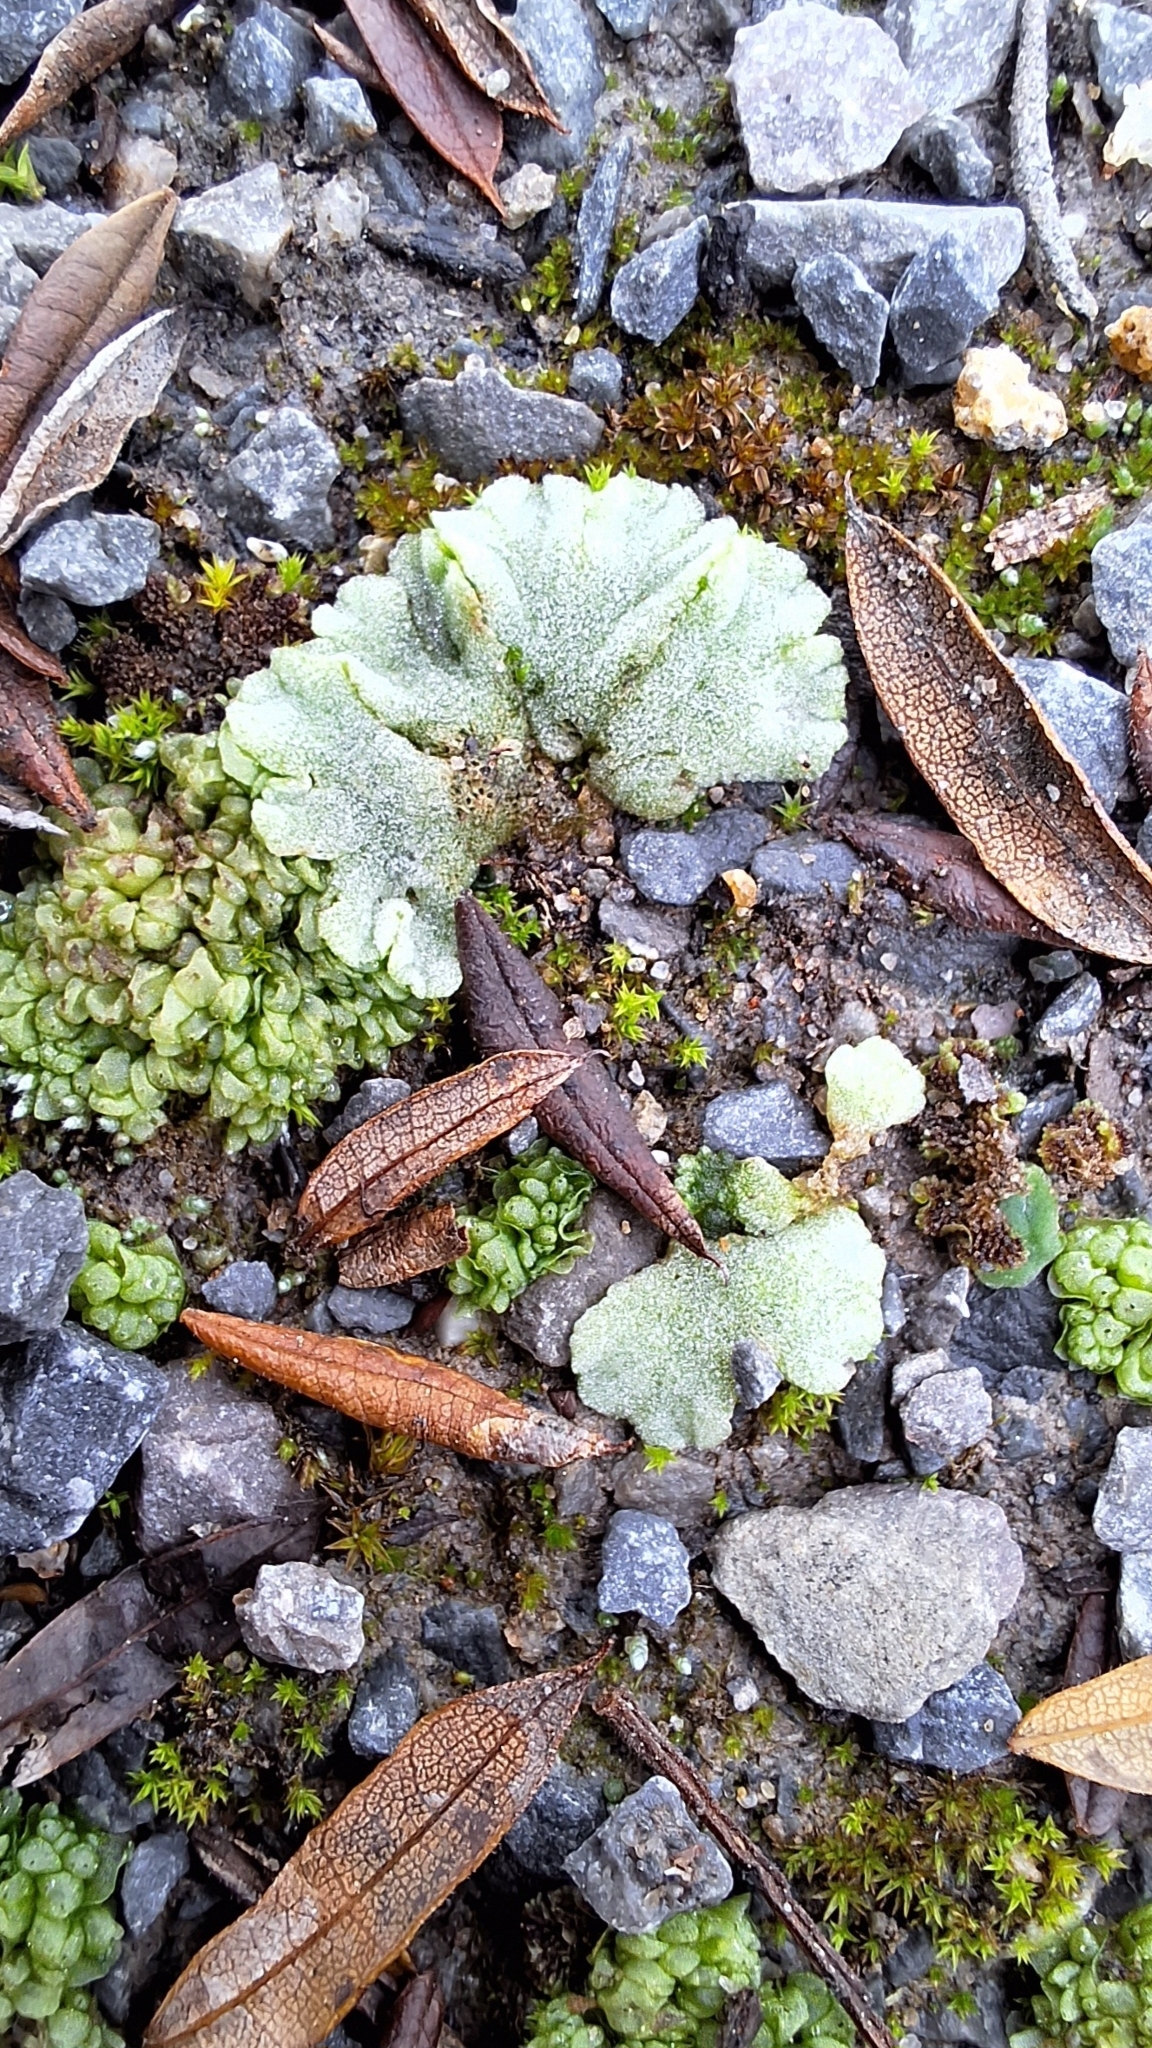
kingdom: Plantae
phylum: Marchantiophyta
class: Marchantiopsida
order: Marchantiales
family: Ricciaceae
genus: Riccia
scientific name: Riccia crystallina
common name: Blue crystalwort
